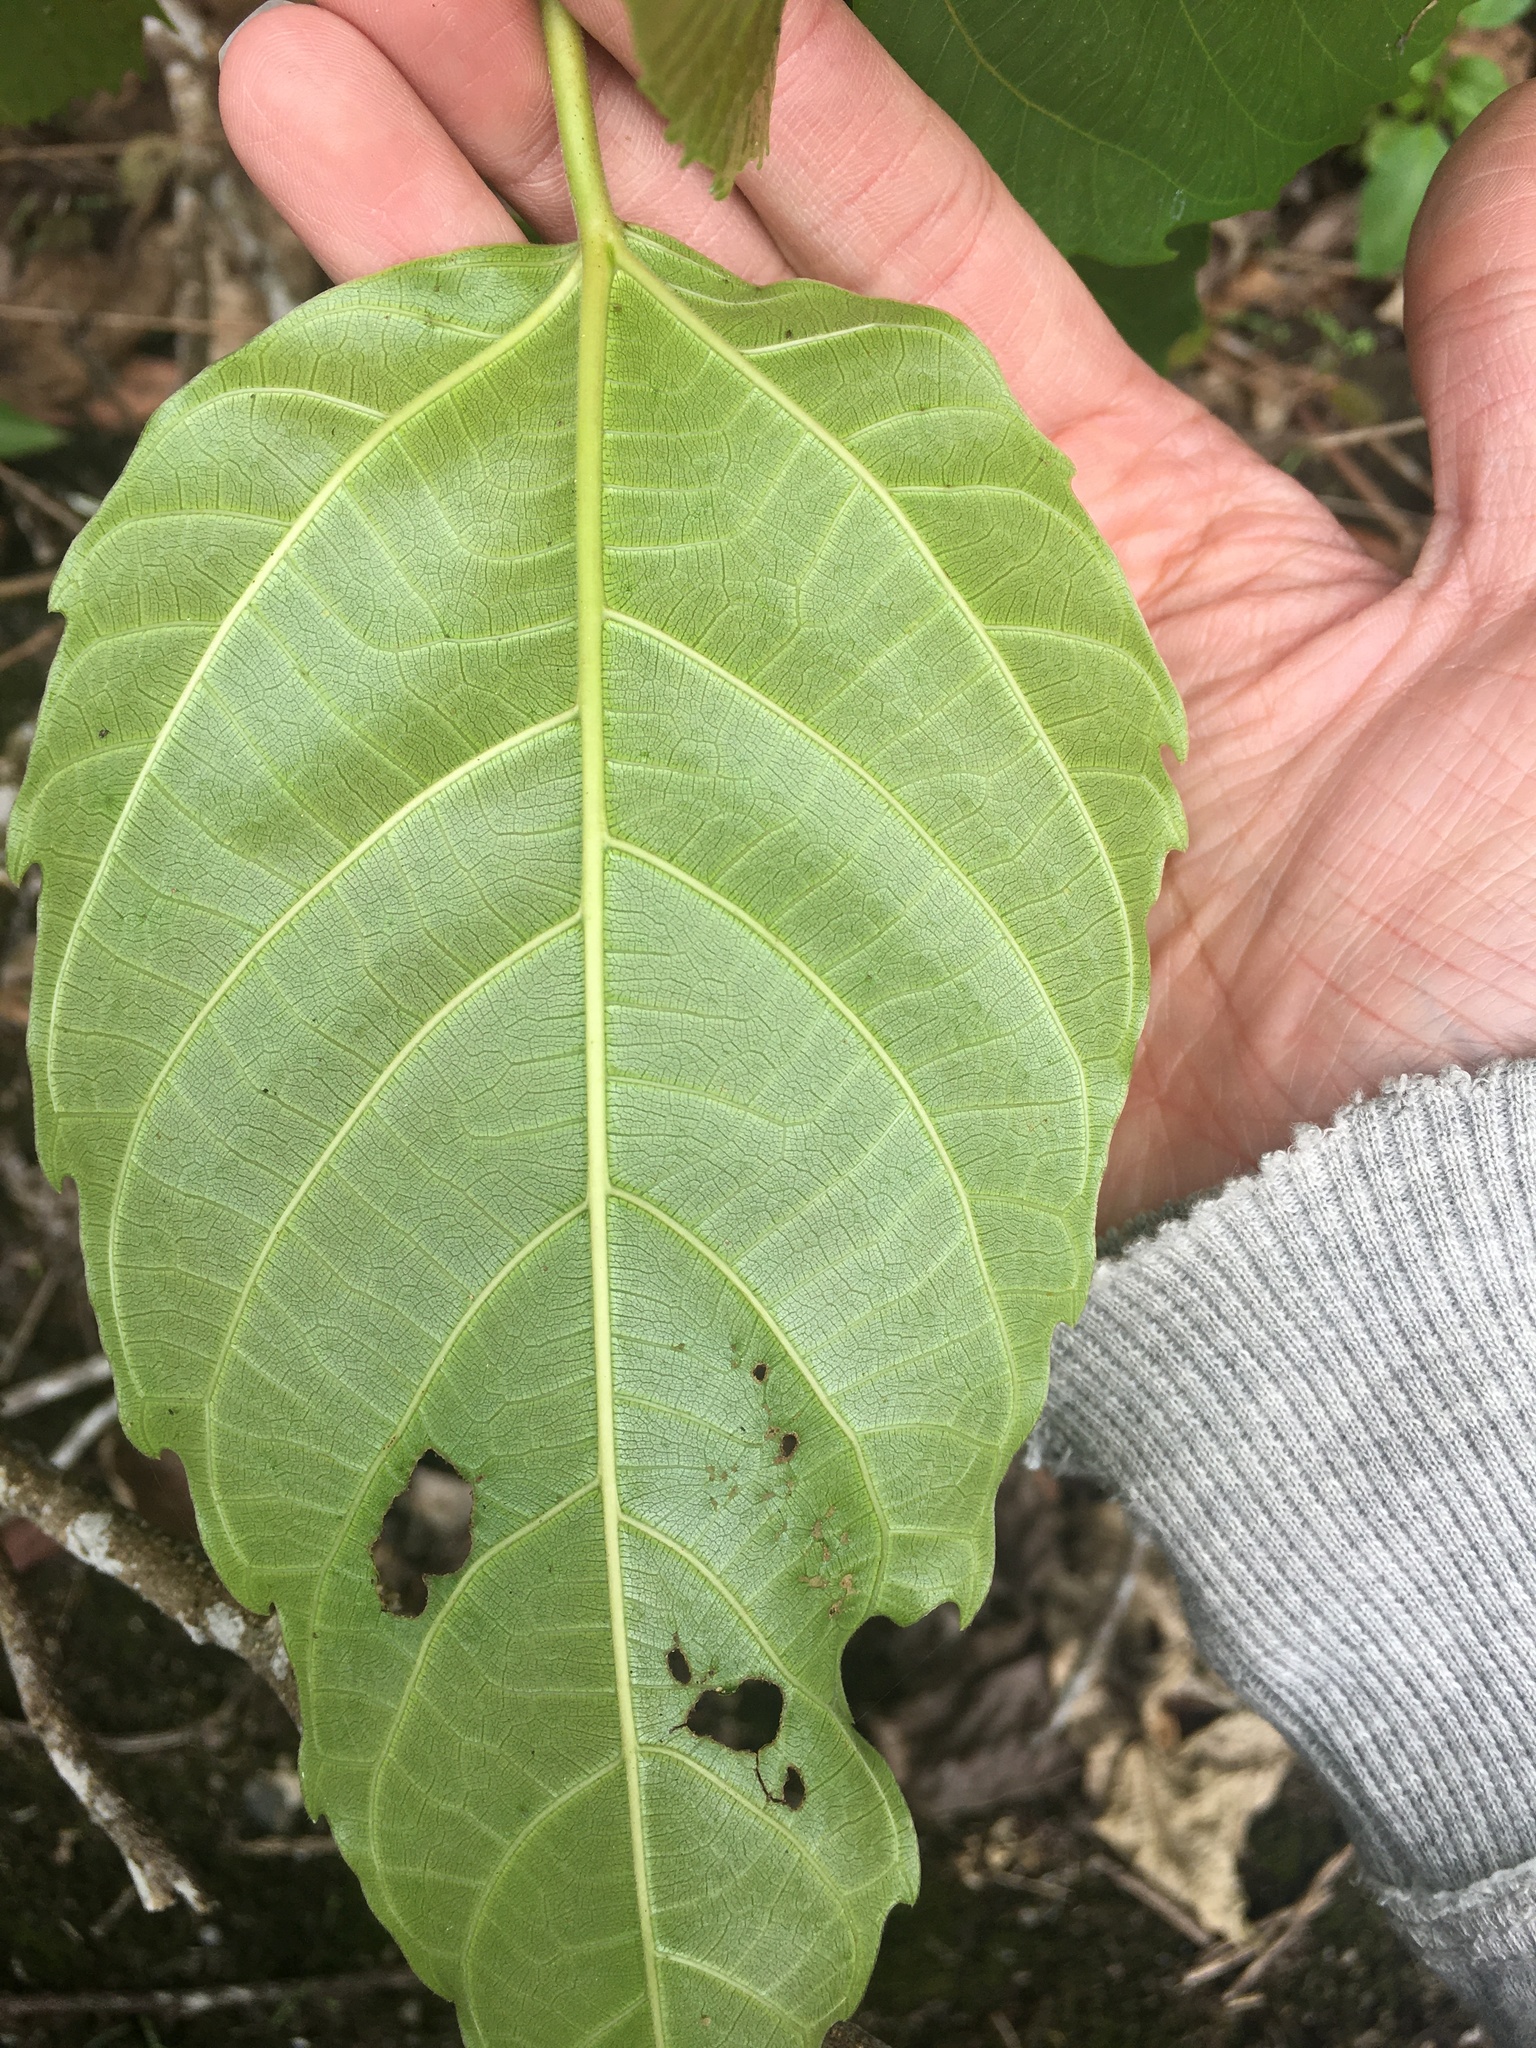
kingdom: Plantae
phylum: Tracheophyta
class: Magnoliopsida
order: Rosales
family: Moraceae
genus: Ficus
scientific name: Ficus variegata
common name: Variegated fig
